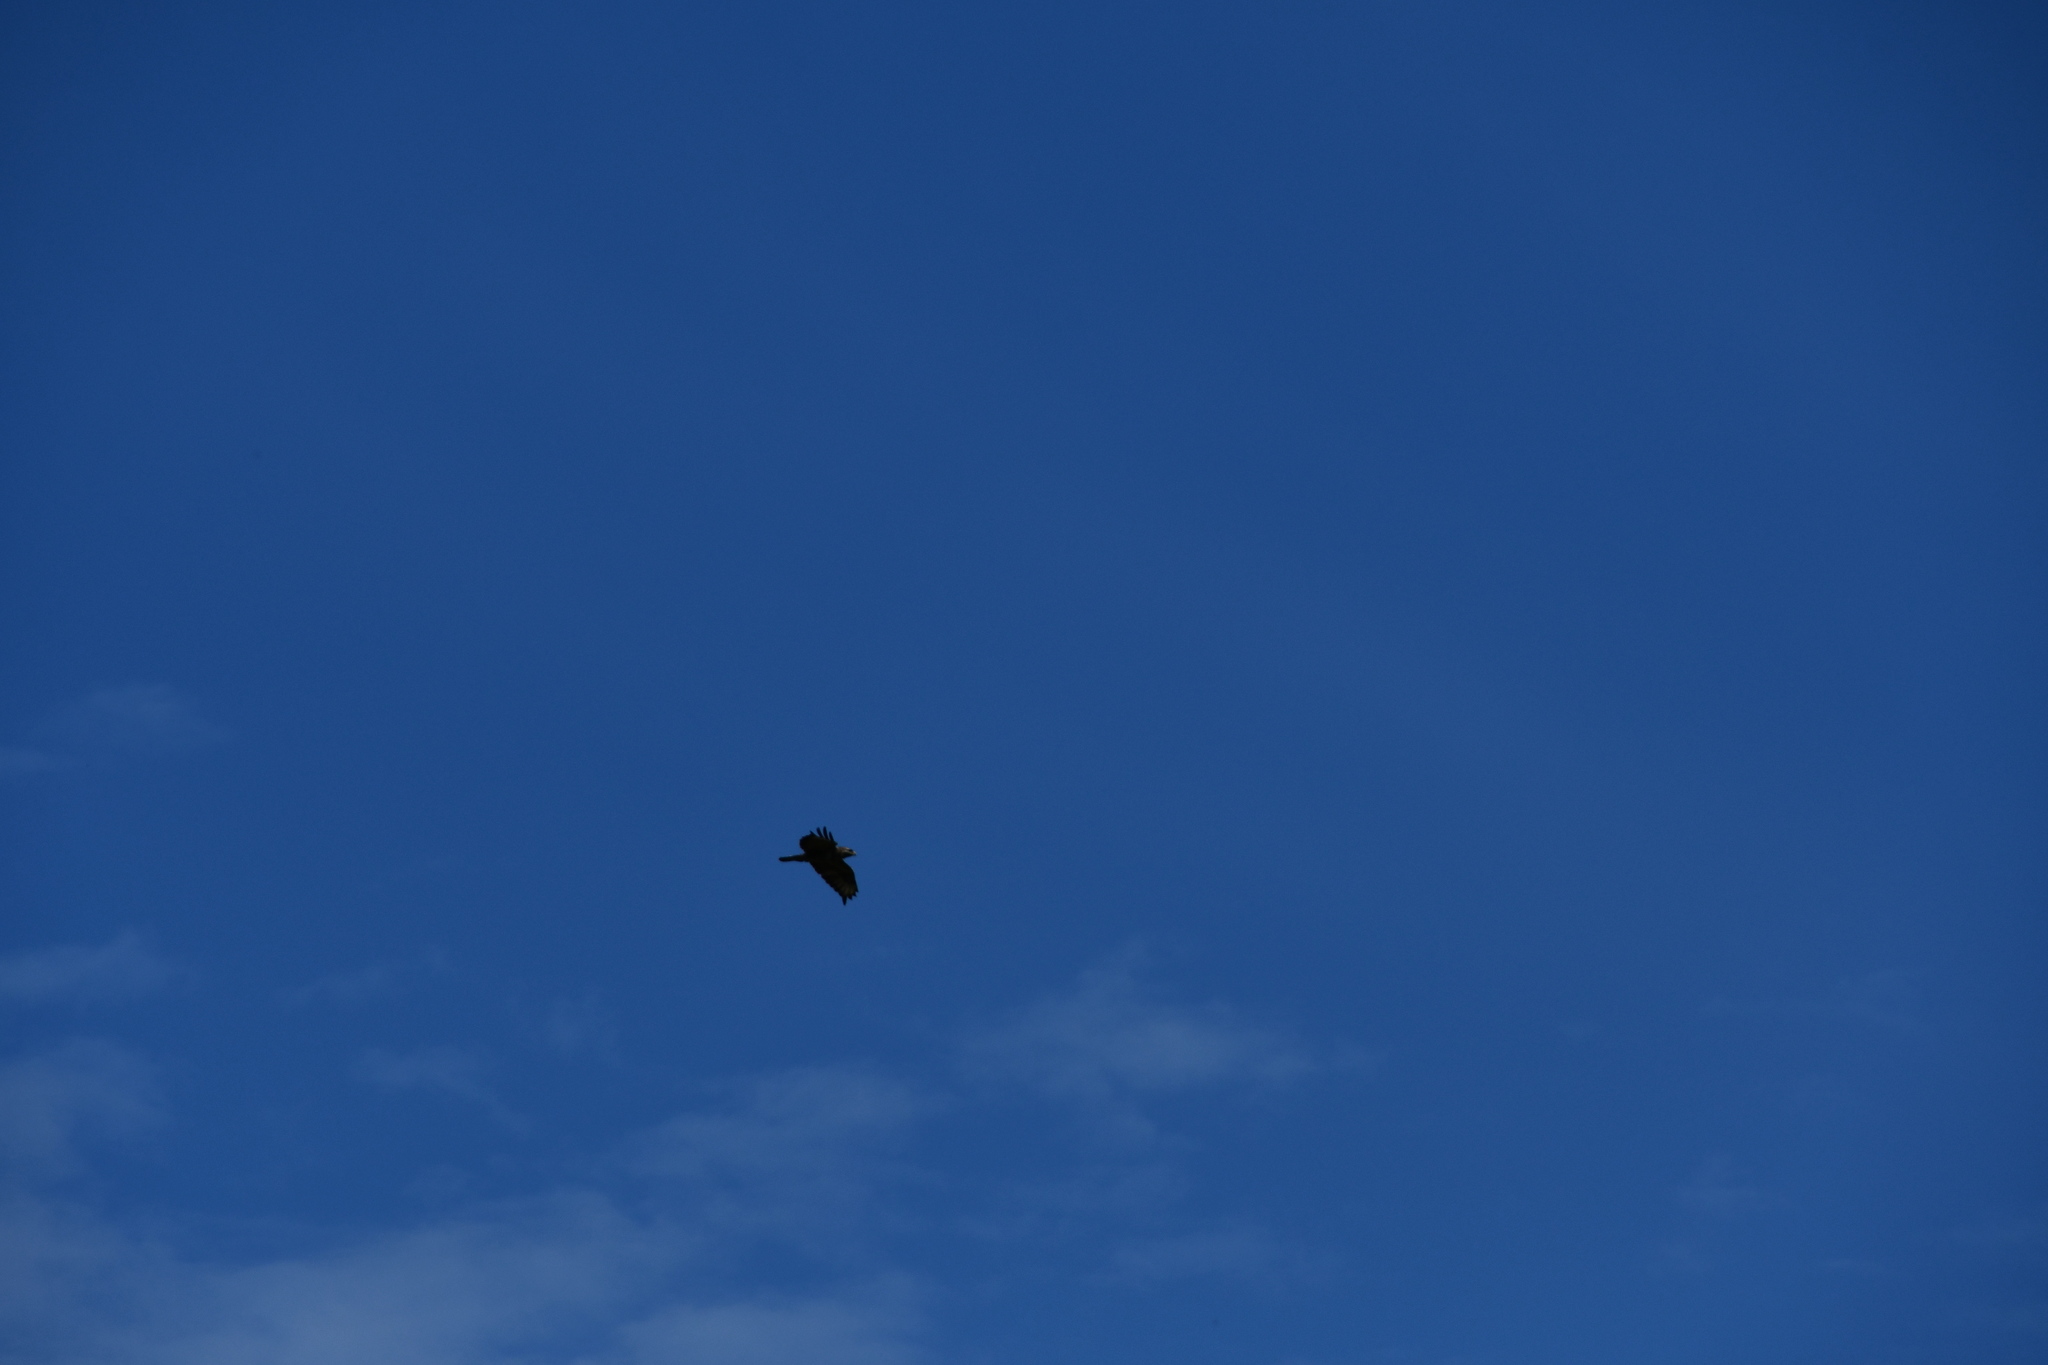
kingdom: Animalia
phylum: Chordata
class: Aves
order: Accipitriformes
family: Accipitridae
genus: Buteo
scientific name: Buteo buteo
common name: Common buzzard
